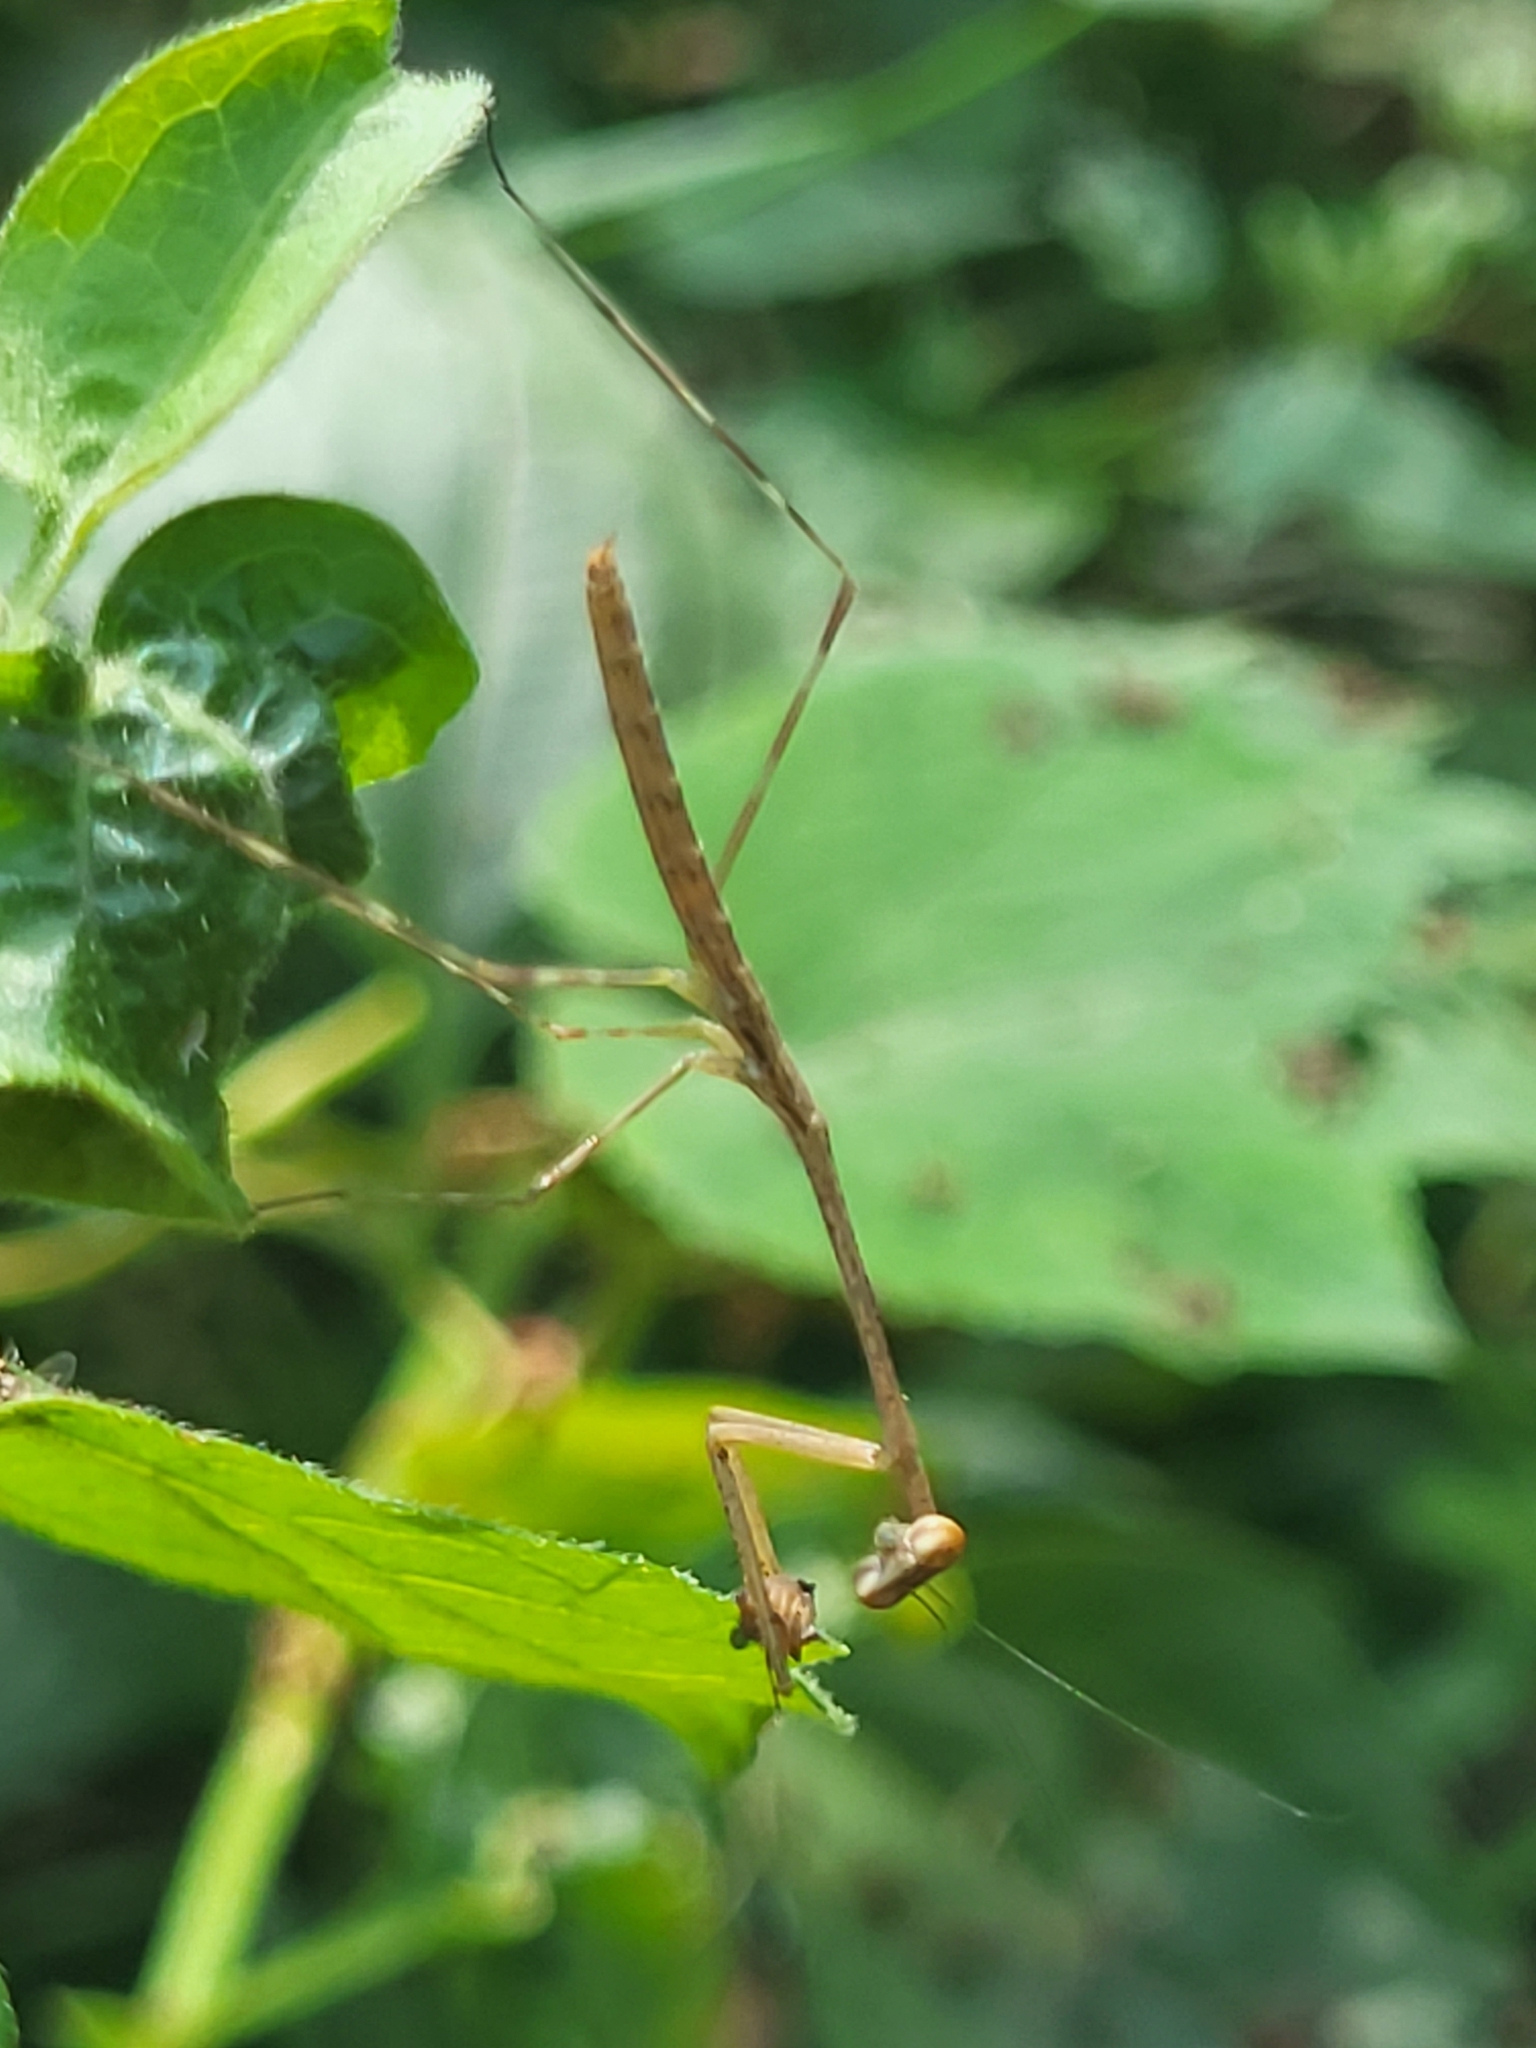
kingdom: Animalia
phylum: Arthropoda
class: Insecta
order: Mantodea
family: Deroplatyidae
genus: Indomenella
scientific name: Indomenella indica
